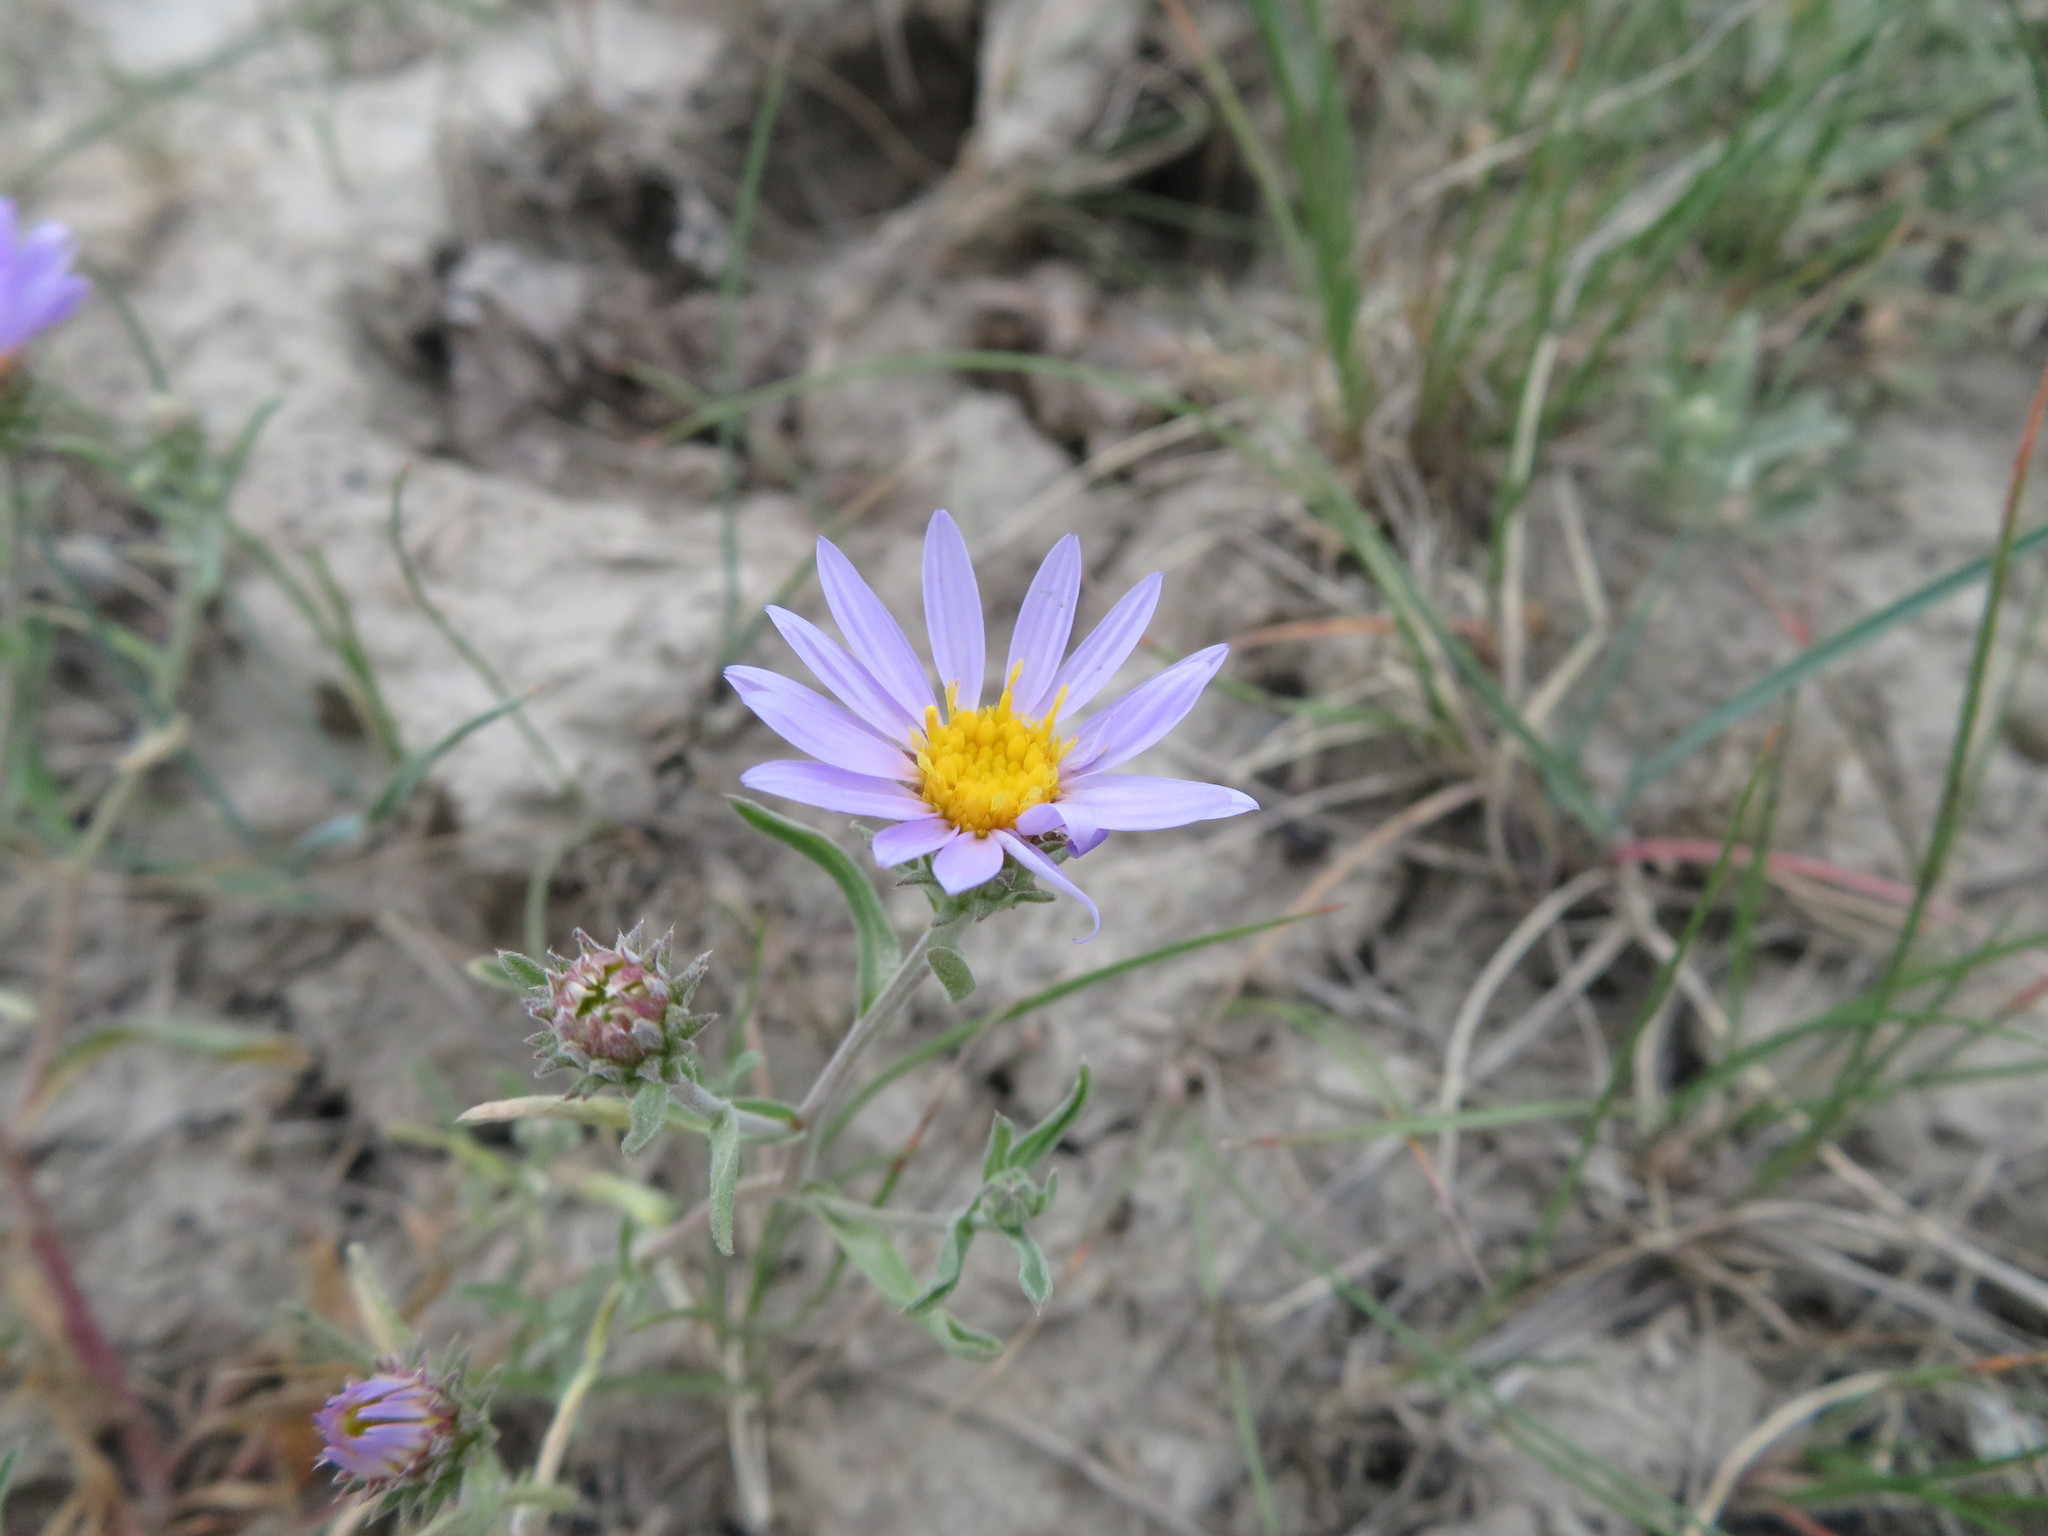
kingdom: Plantae
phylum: Tracheophyta
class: Magnoliopsida
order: Asterales
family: Asteraceae
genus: Dieteria
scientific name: Dieteria canescens
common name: Hoary-aster
